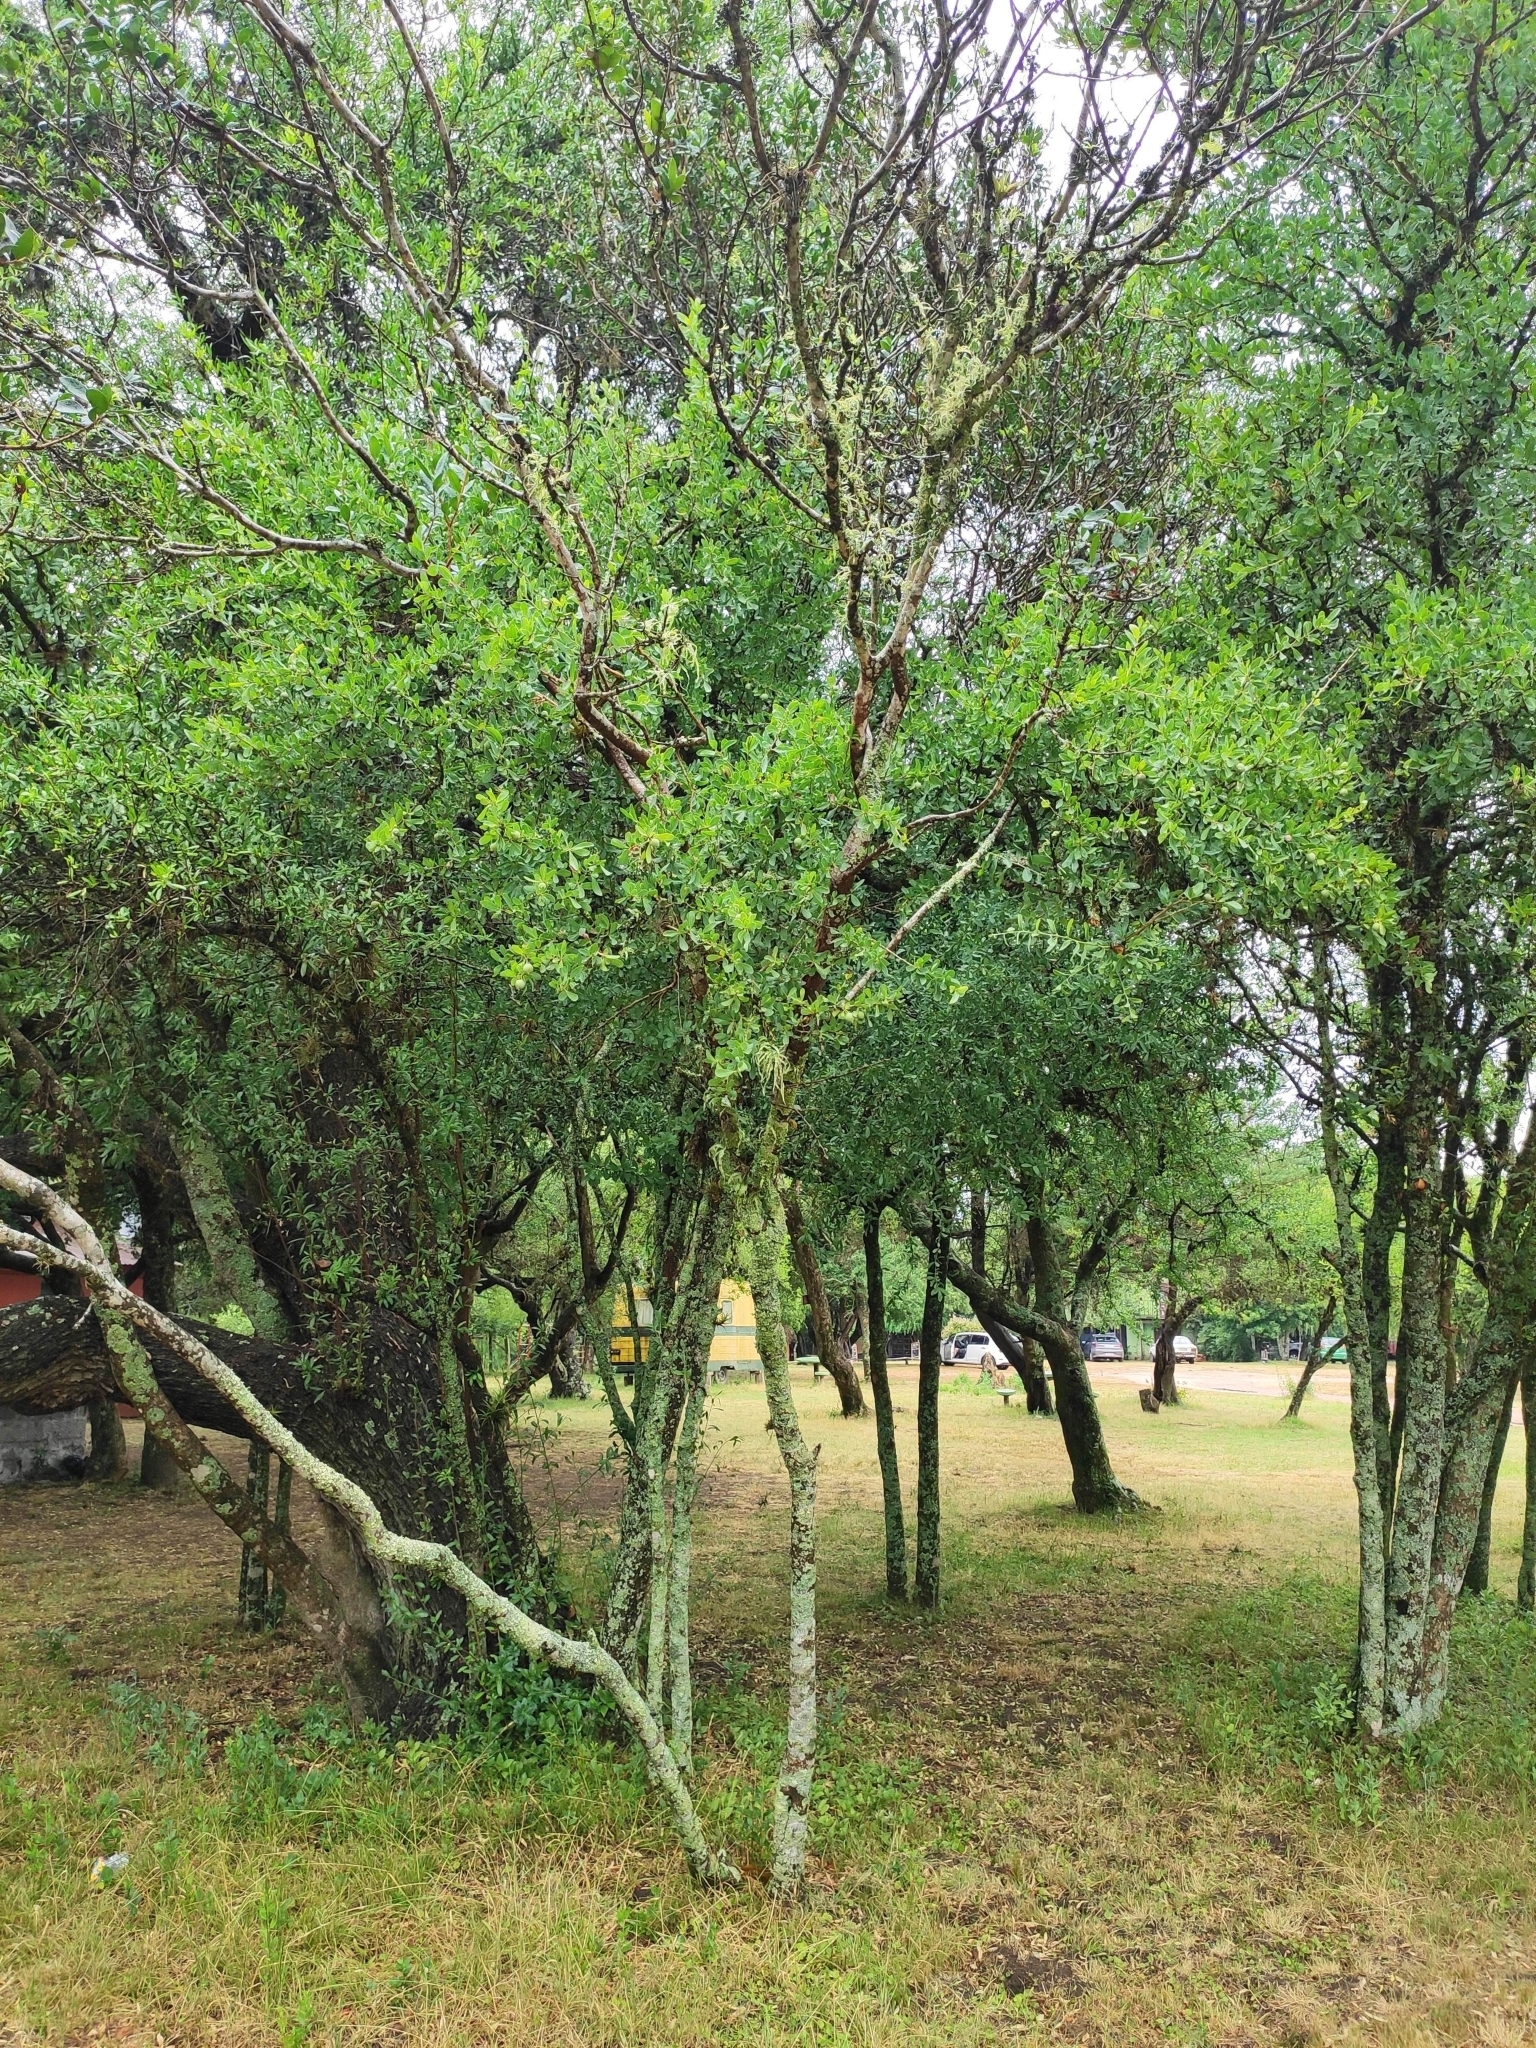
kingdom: Plantae
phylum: Tracheophyta
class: Magnoliopsida
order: Santalales
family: Cervantesiaceae
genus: Acanthosyris
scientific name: Acanthosyris spinescens
